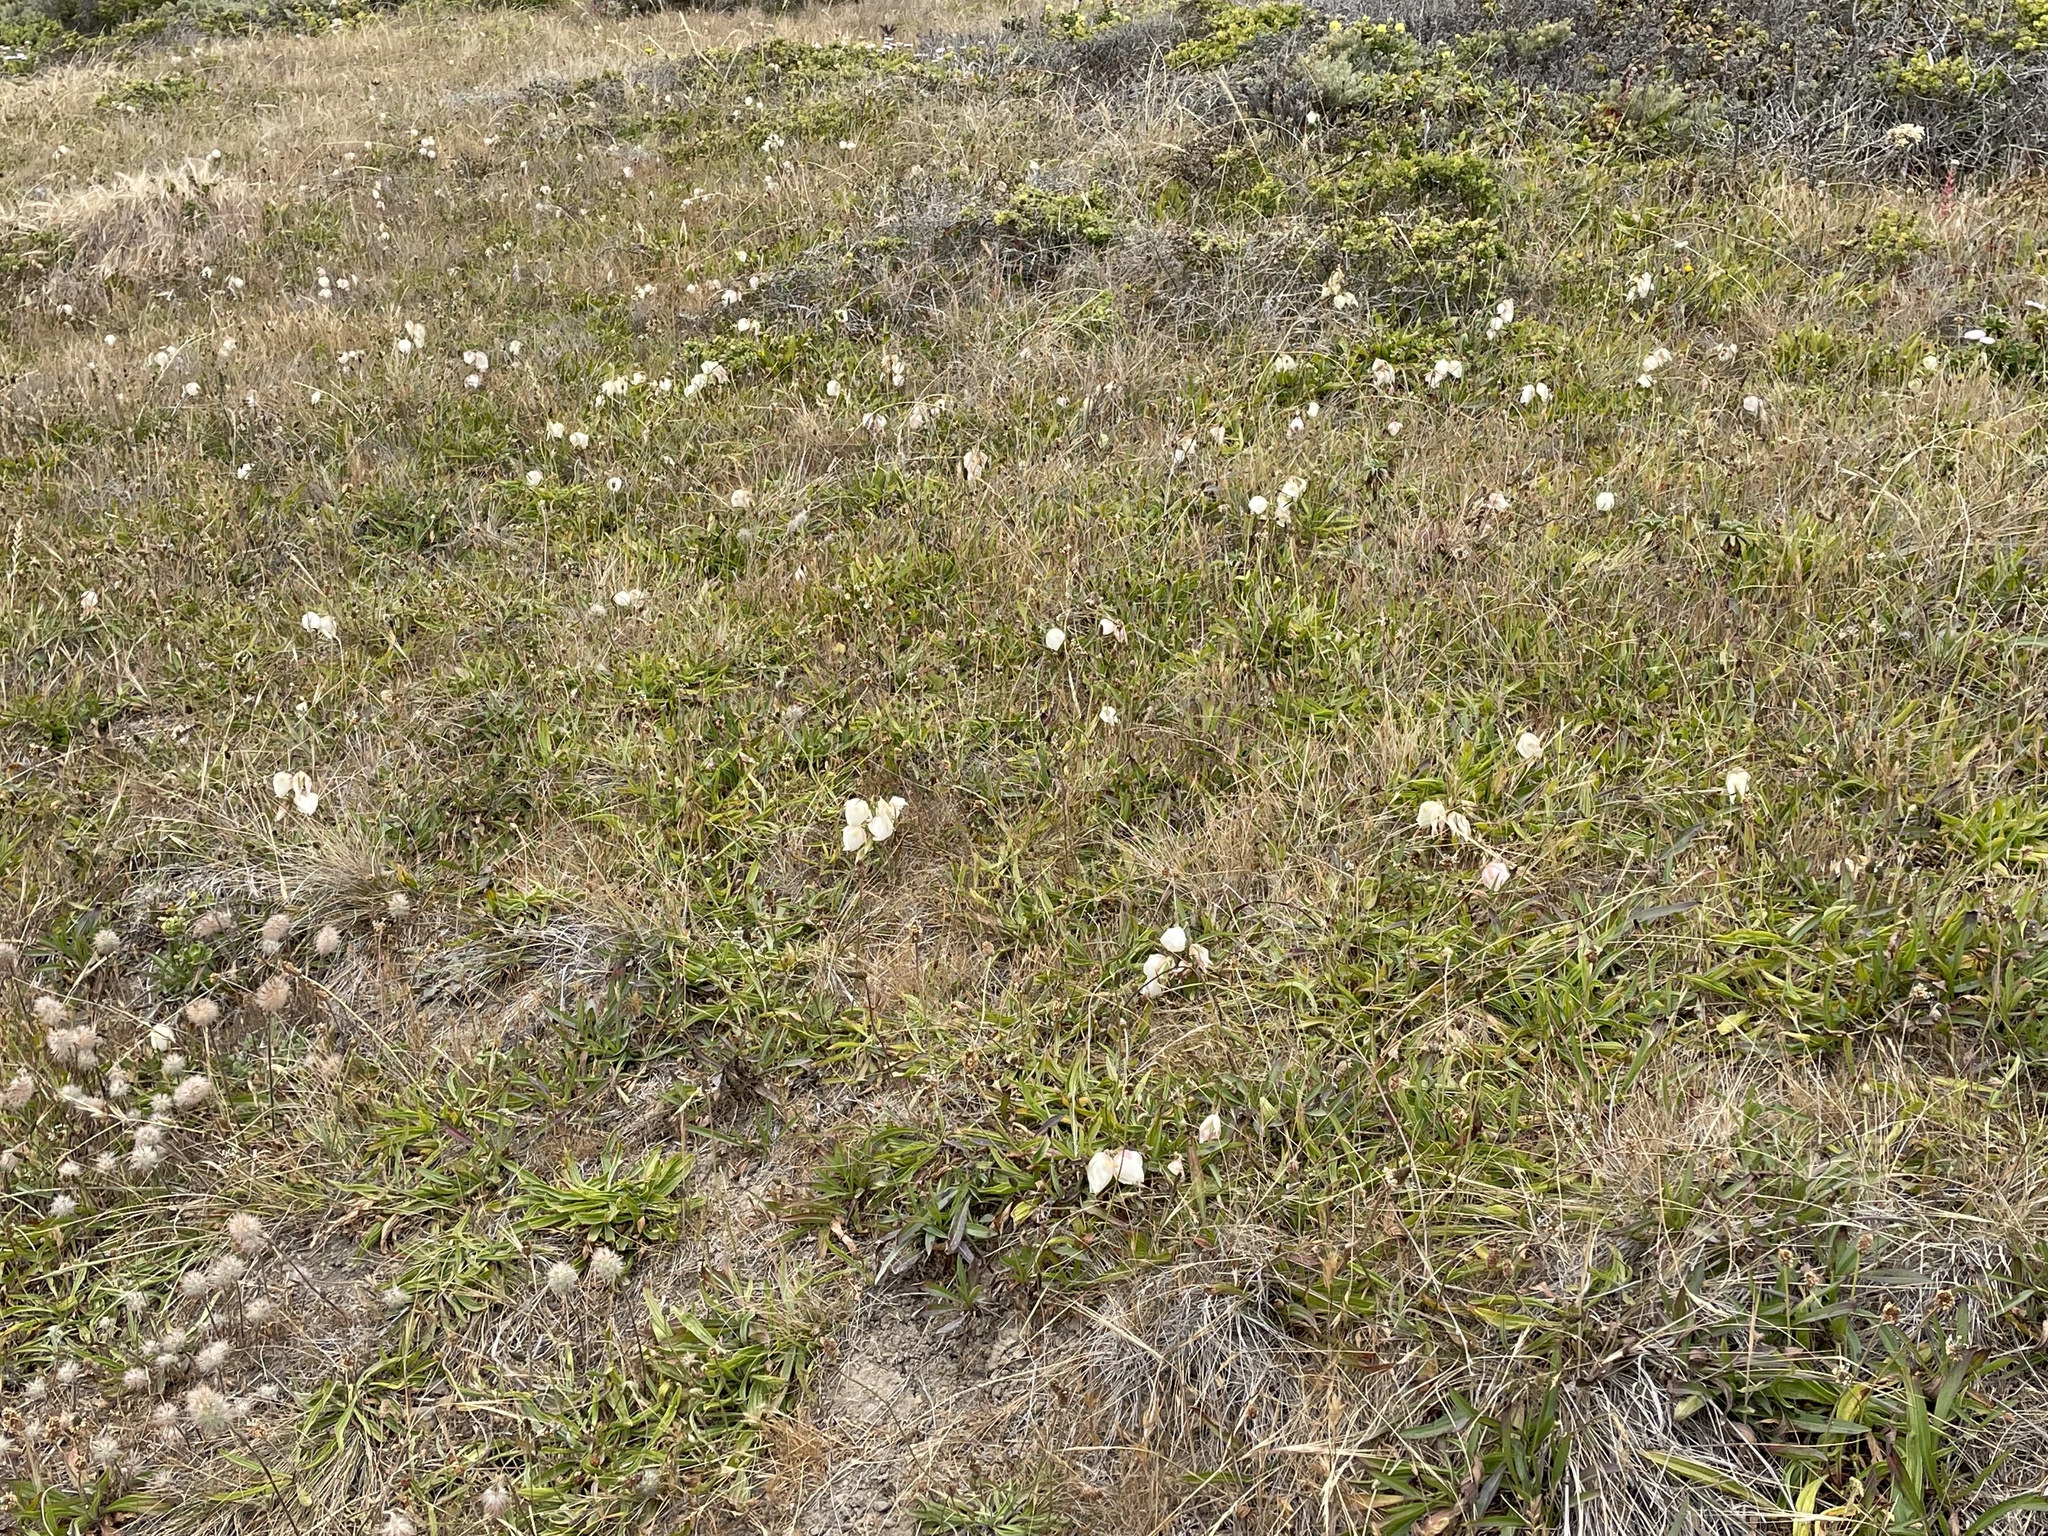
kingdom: Plantae
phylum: Tracheophyta
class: Liliopsida
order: Liliales
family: Liliaceae
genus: Calochortus
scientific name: Calochortus albus
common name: Fairy-lantern
